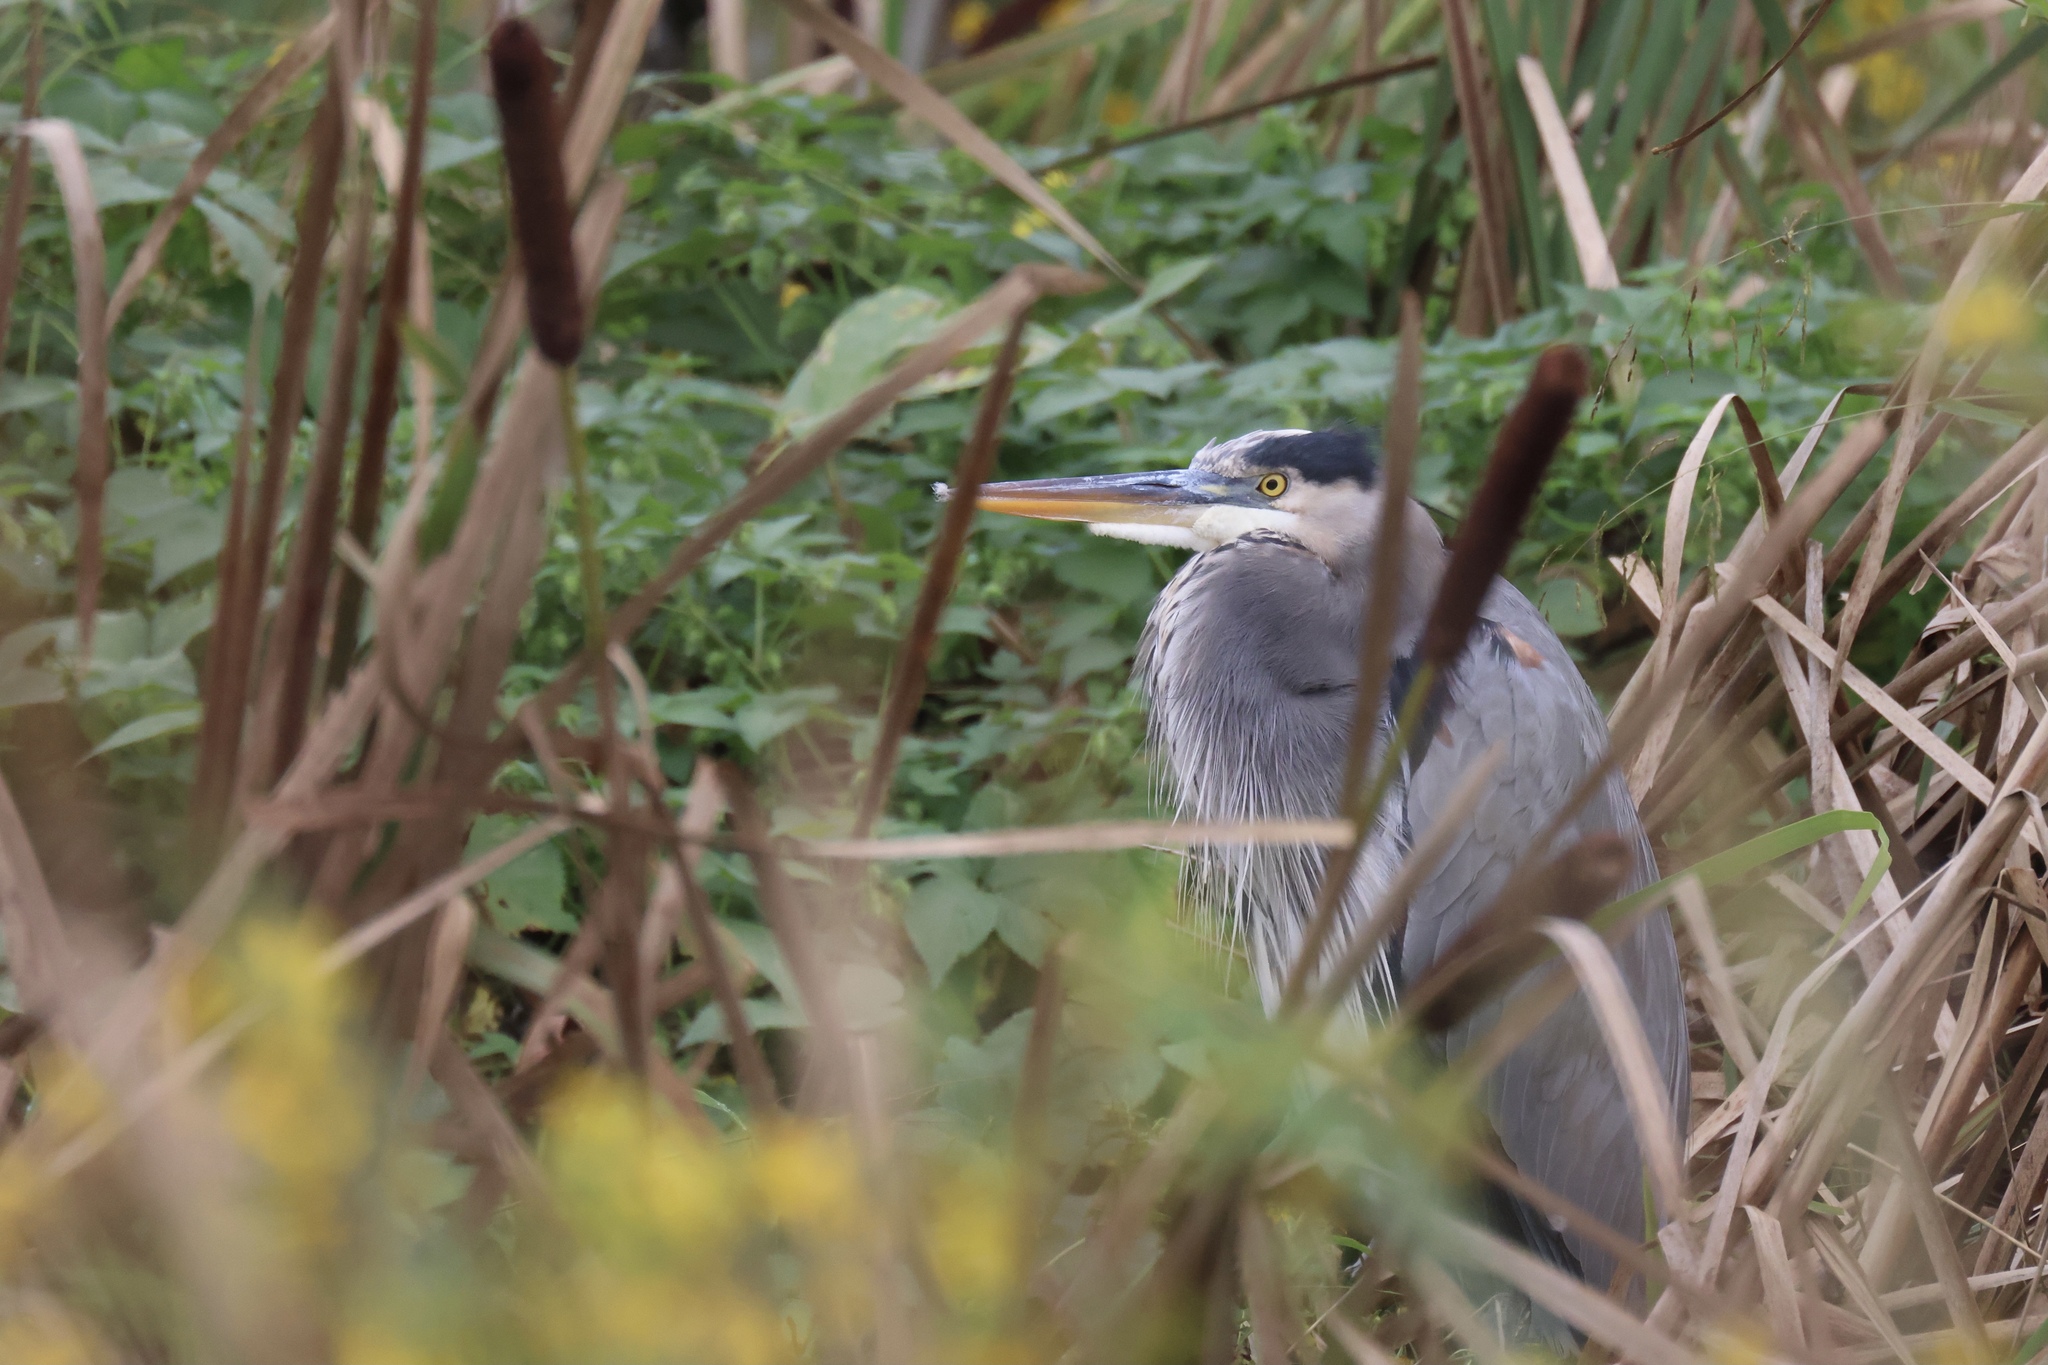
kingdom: Animalia
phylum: Chordata
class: Aves
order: Pelecaniformes
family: Ardeidae
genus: Ardea
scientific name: Ardea herodias
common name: Great blue heron
